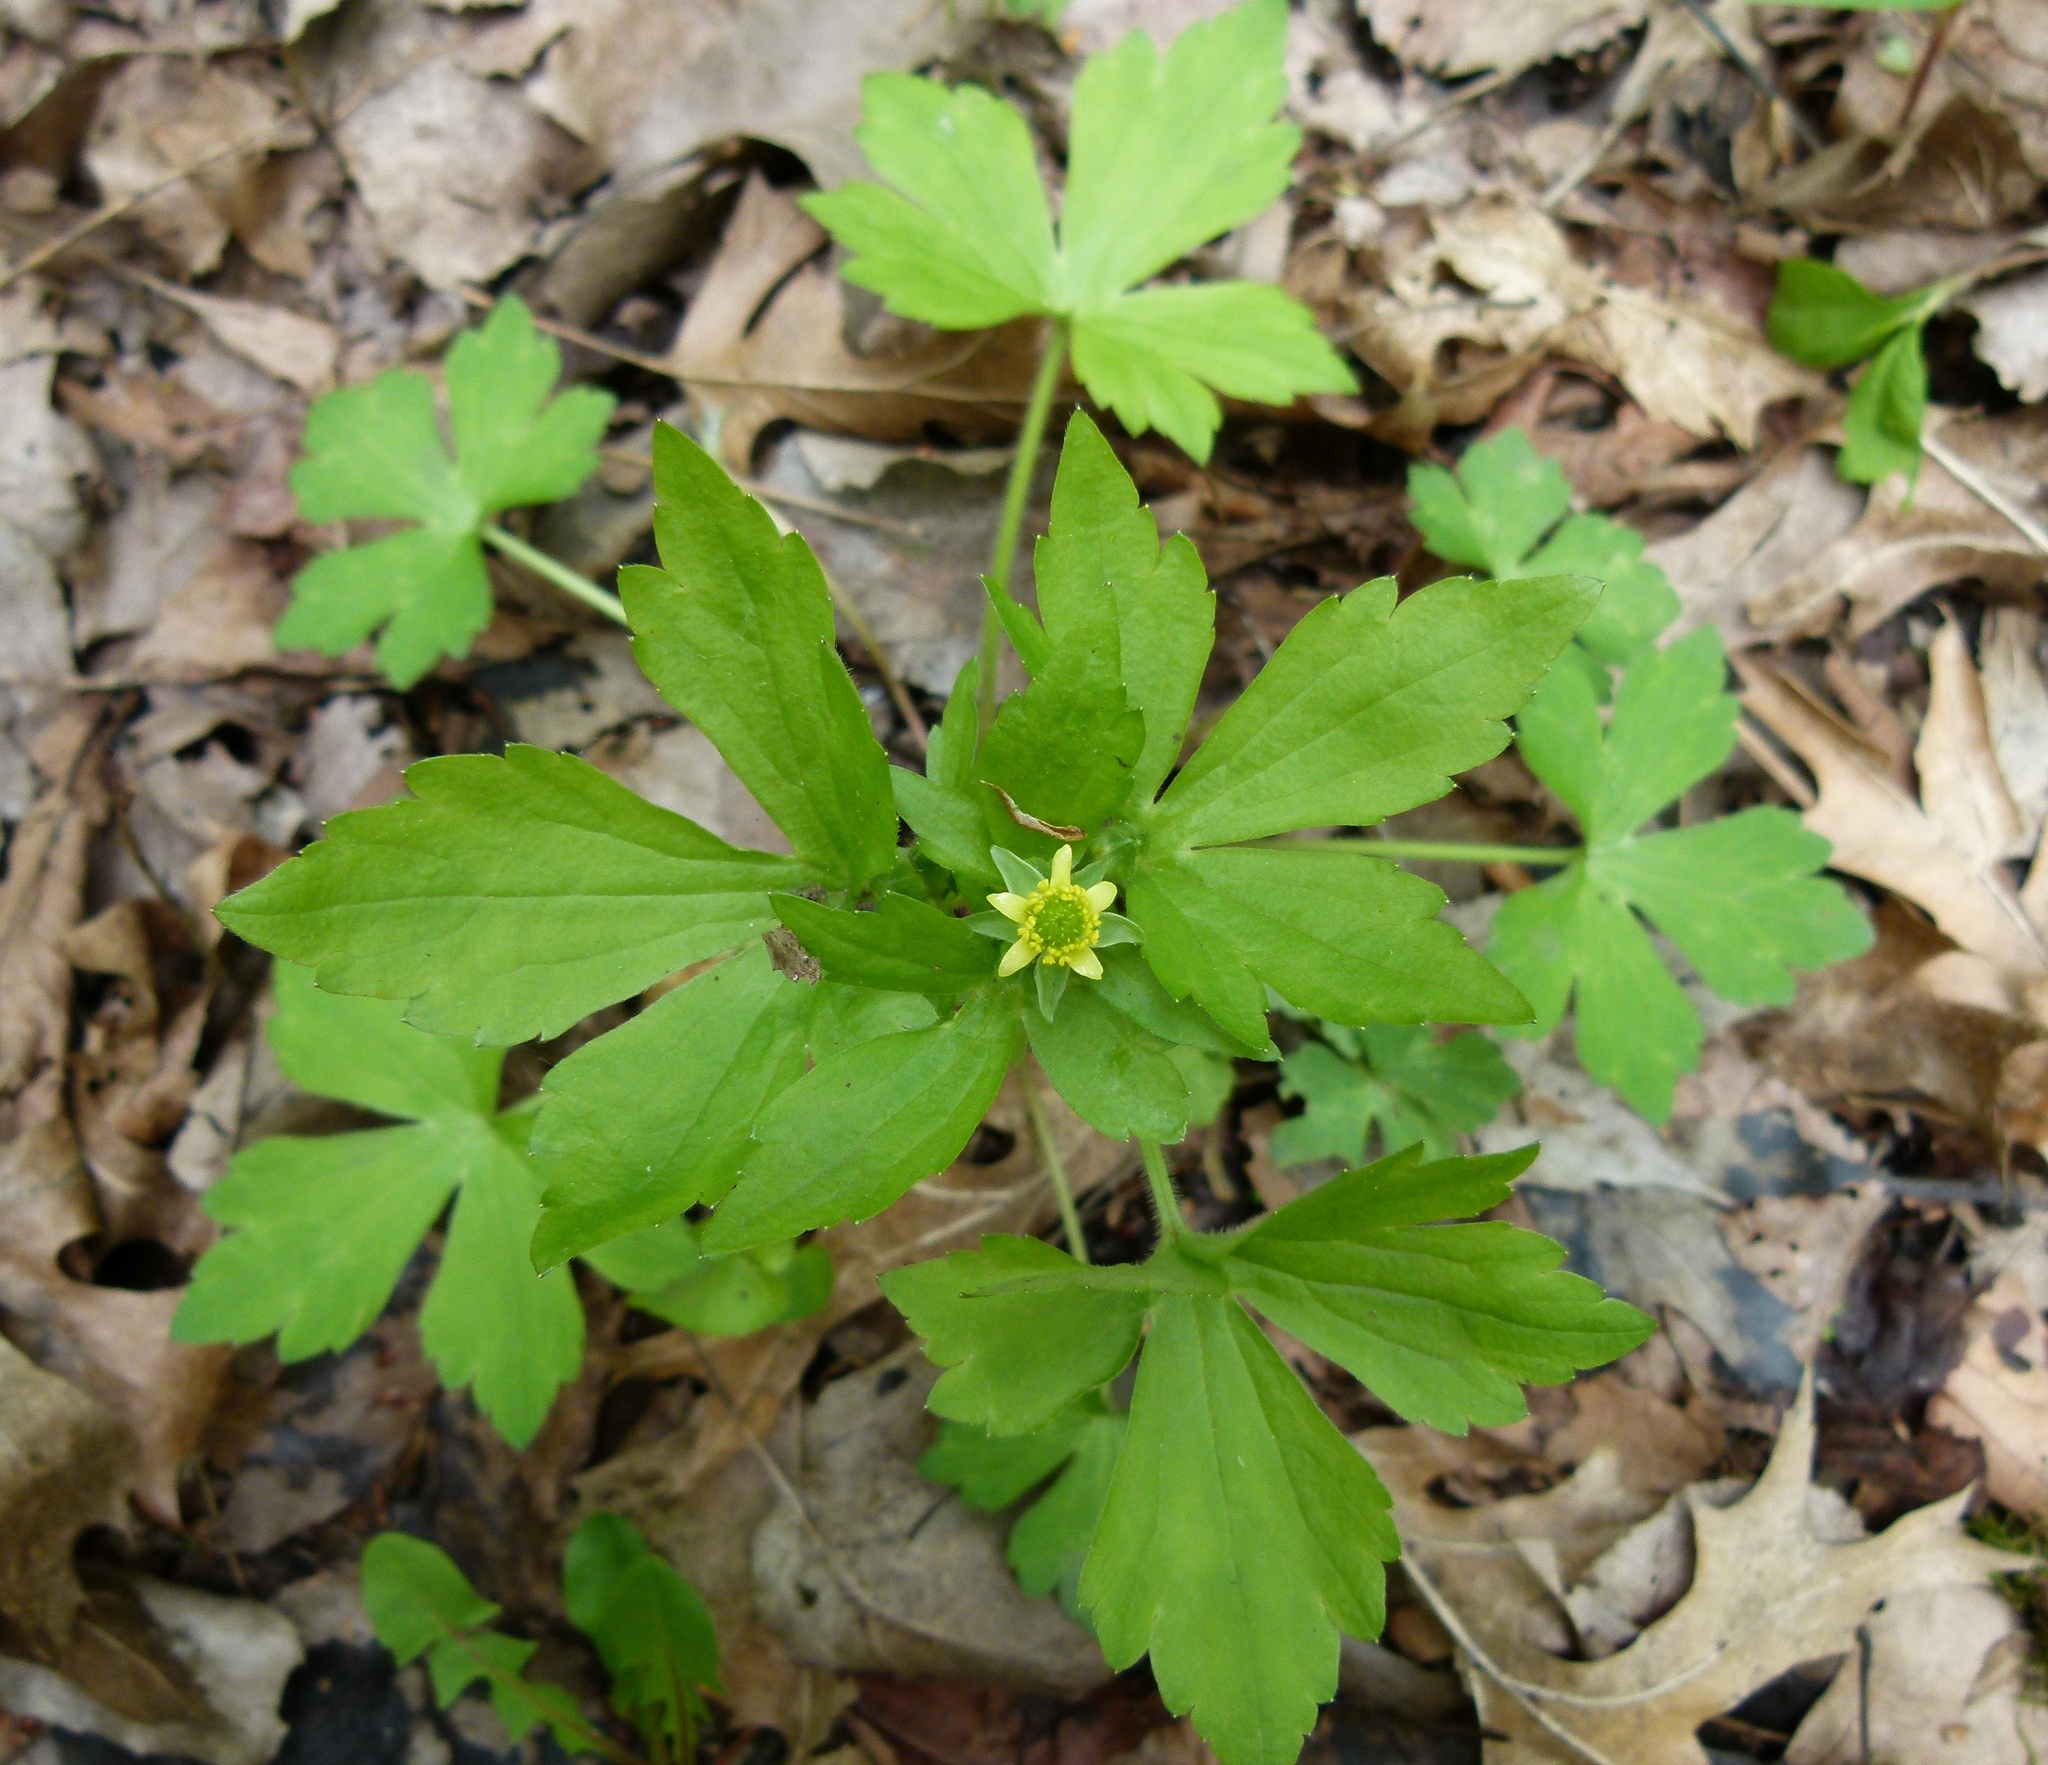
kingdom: Plantae
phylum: Tracheophyta
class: Magnoliopsida
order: Ranunculales
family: Ranunculaceae
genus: Ranunculus
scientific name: Ranunculus recurvatus
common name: Blisterwort
